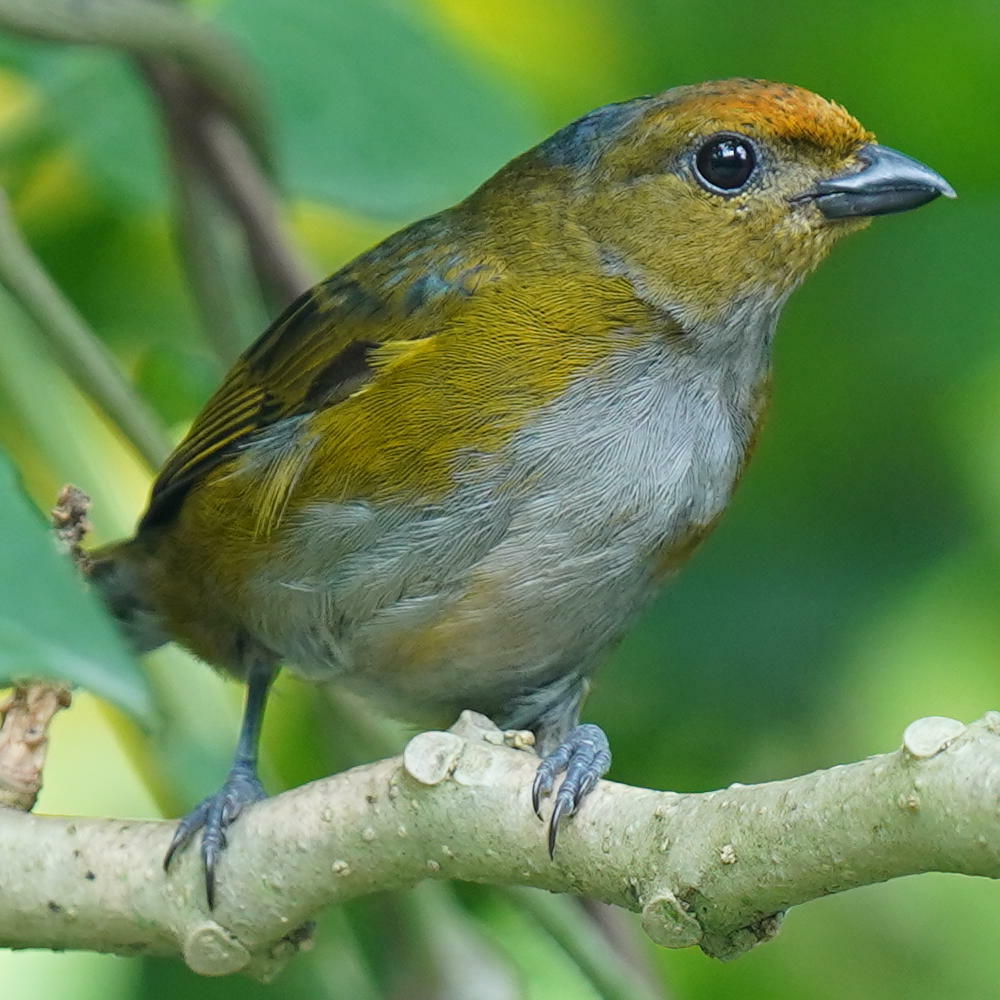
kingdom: Animalia
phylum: Chordata
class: Aves
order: Passeriformes
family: Fringillidae
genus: Euphonia
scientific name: Euphonia anneae
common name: Tawny-capped euphonia
